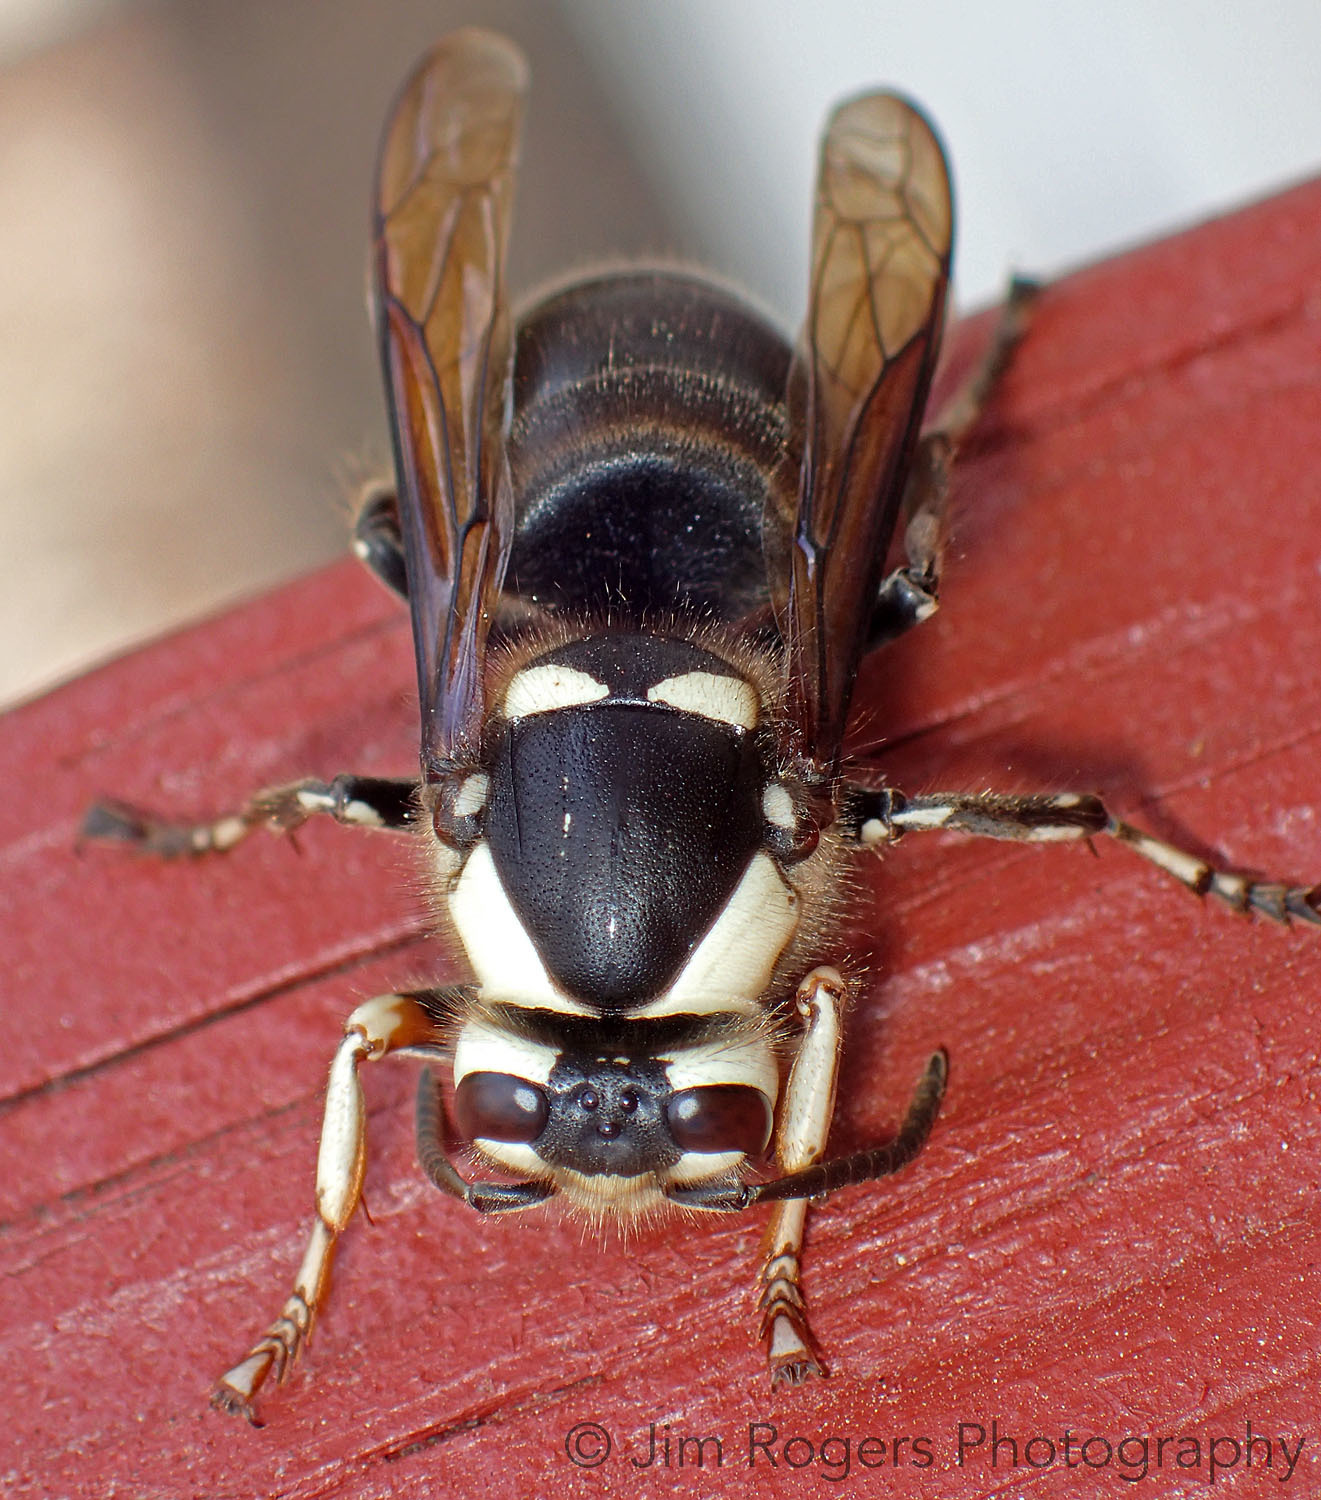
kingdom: Animalia
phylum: Arthropoda
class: Insecta
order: Hymenoptera
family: Vespidae
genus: Dolichovespula
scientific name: Dolichovespula maculata
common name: Bald-faced hornet
